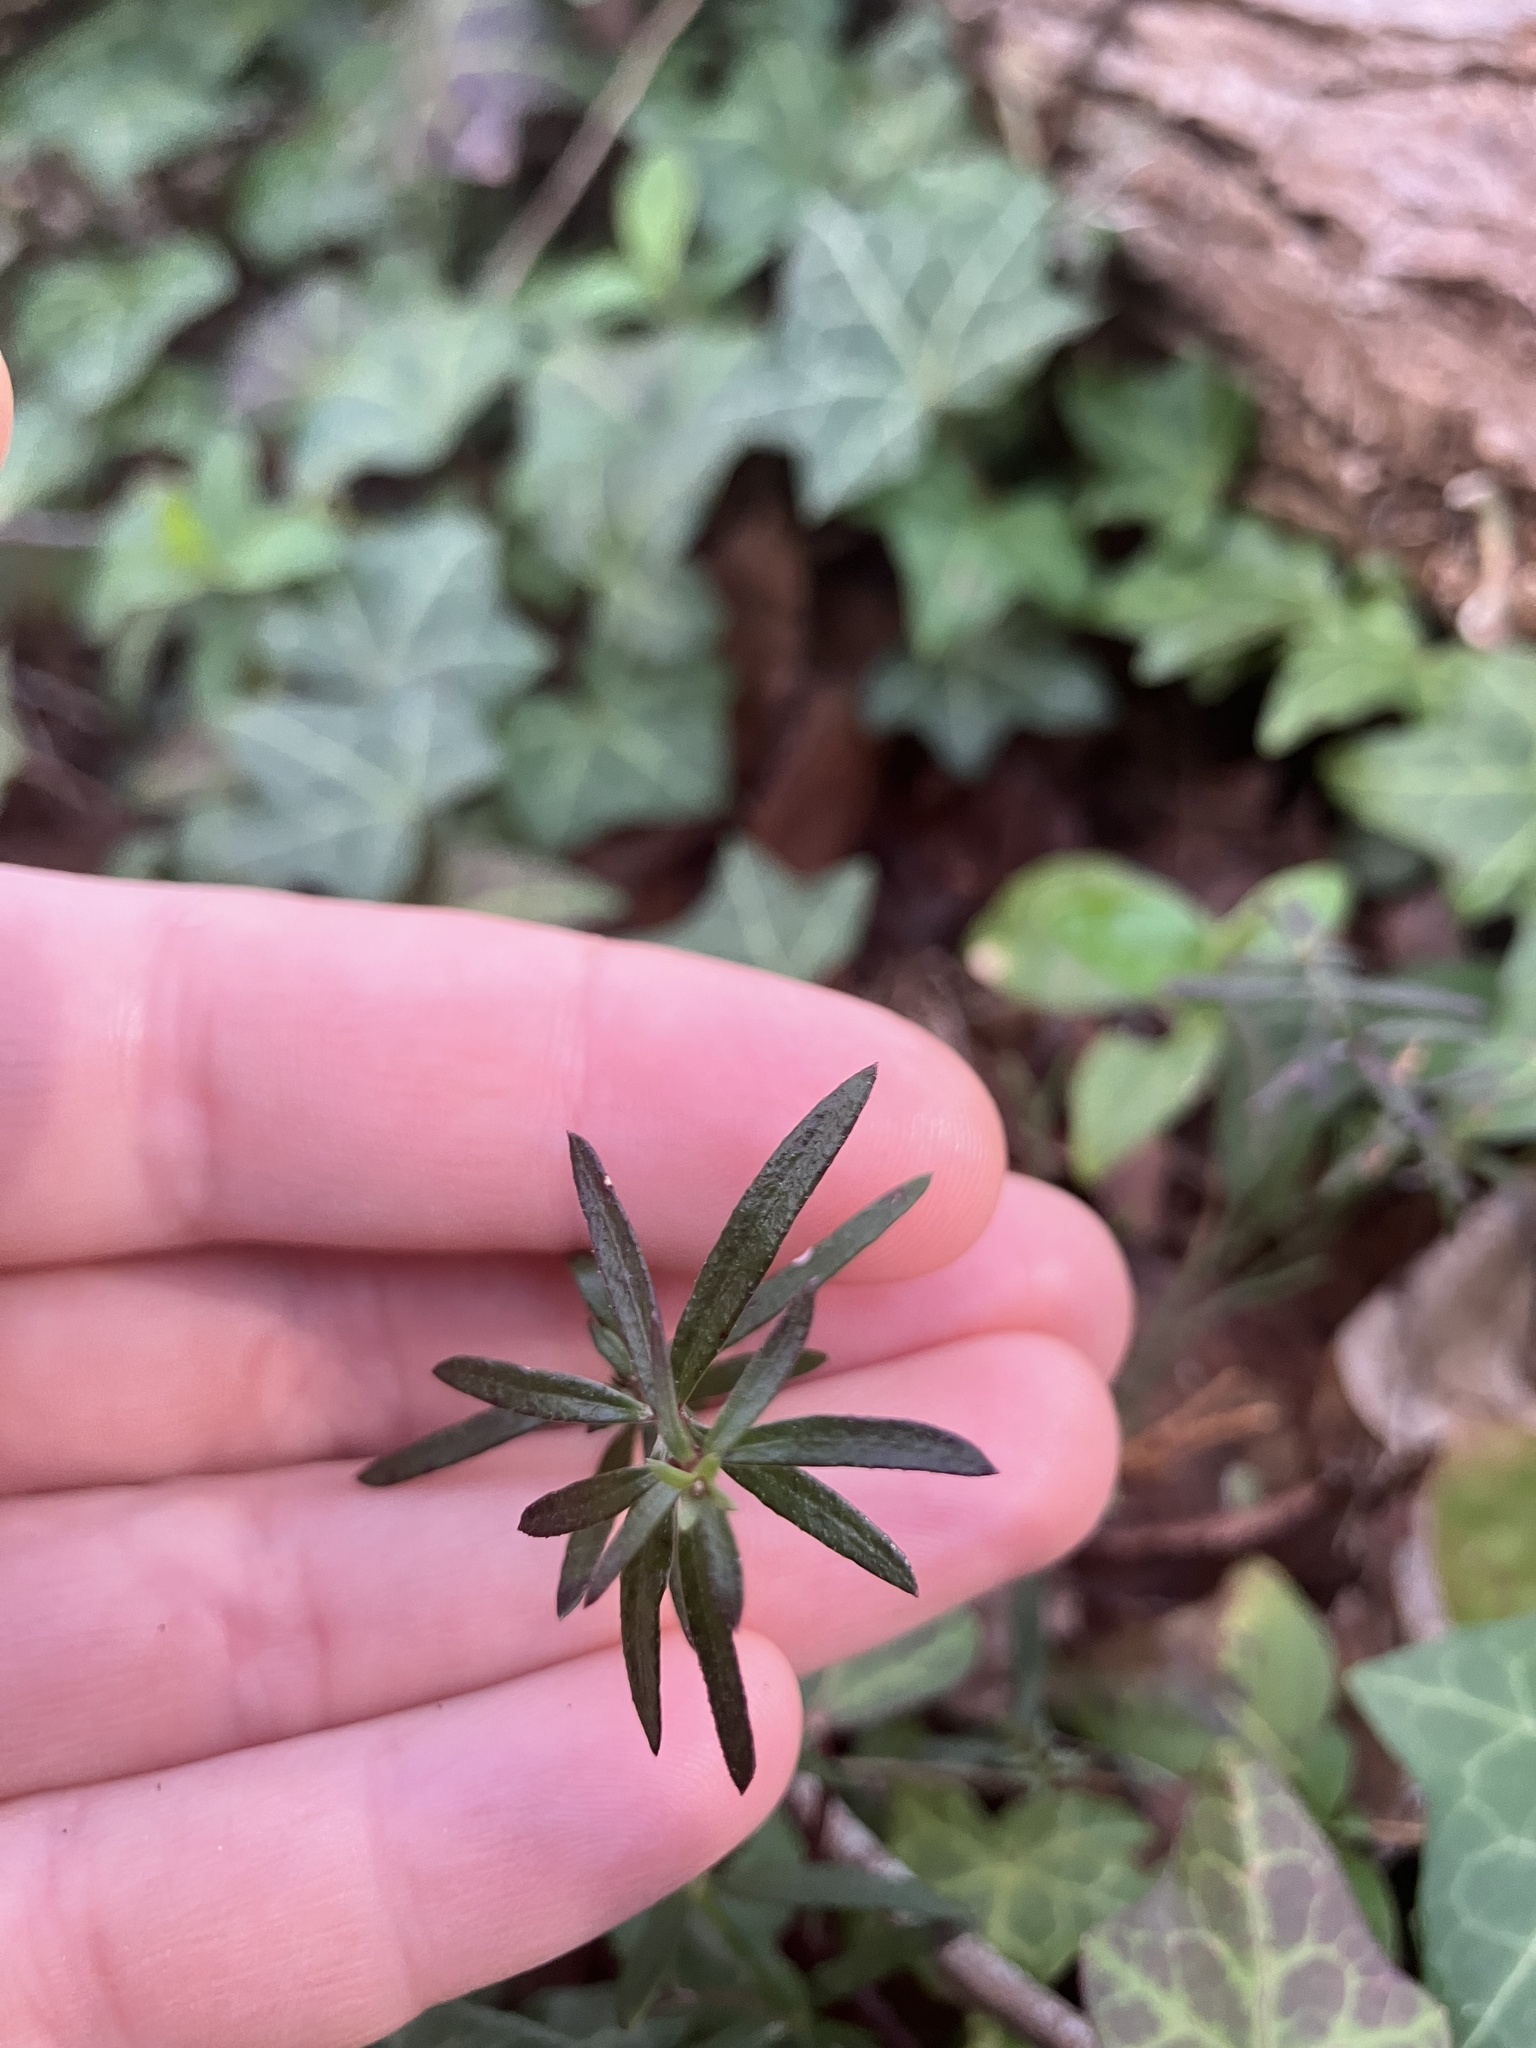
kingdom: Plantae
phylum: Tracheophyta
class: Magnoliopsida
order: Gentianales
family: Rubiaceae
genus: Galium
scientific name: Galium uniflorum
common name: One-flower bedstraw
